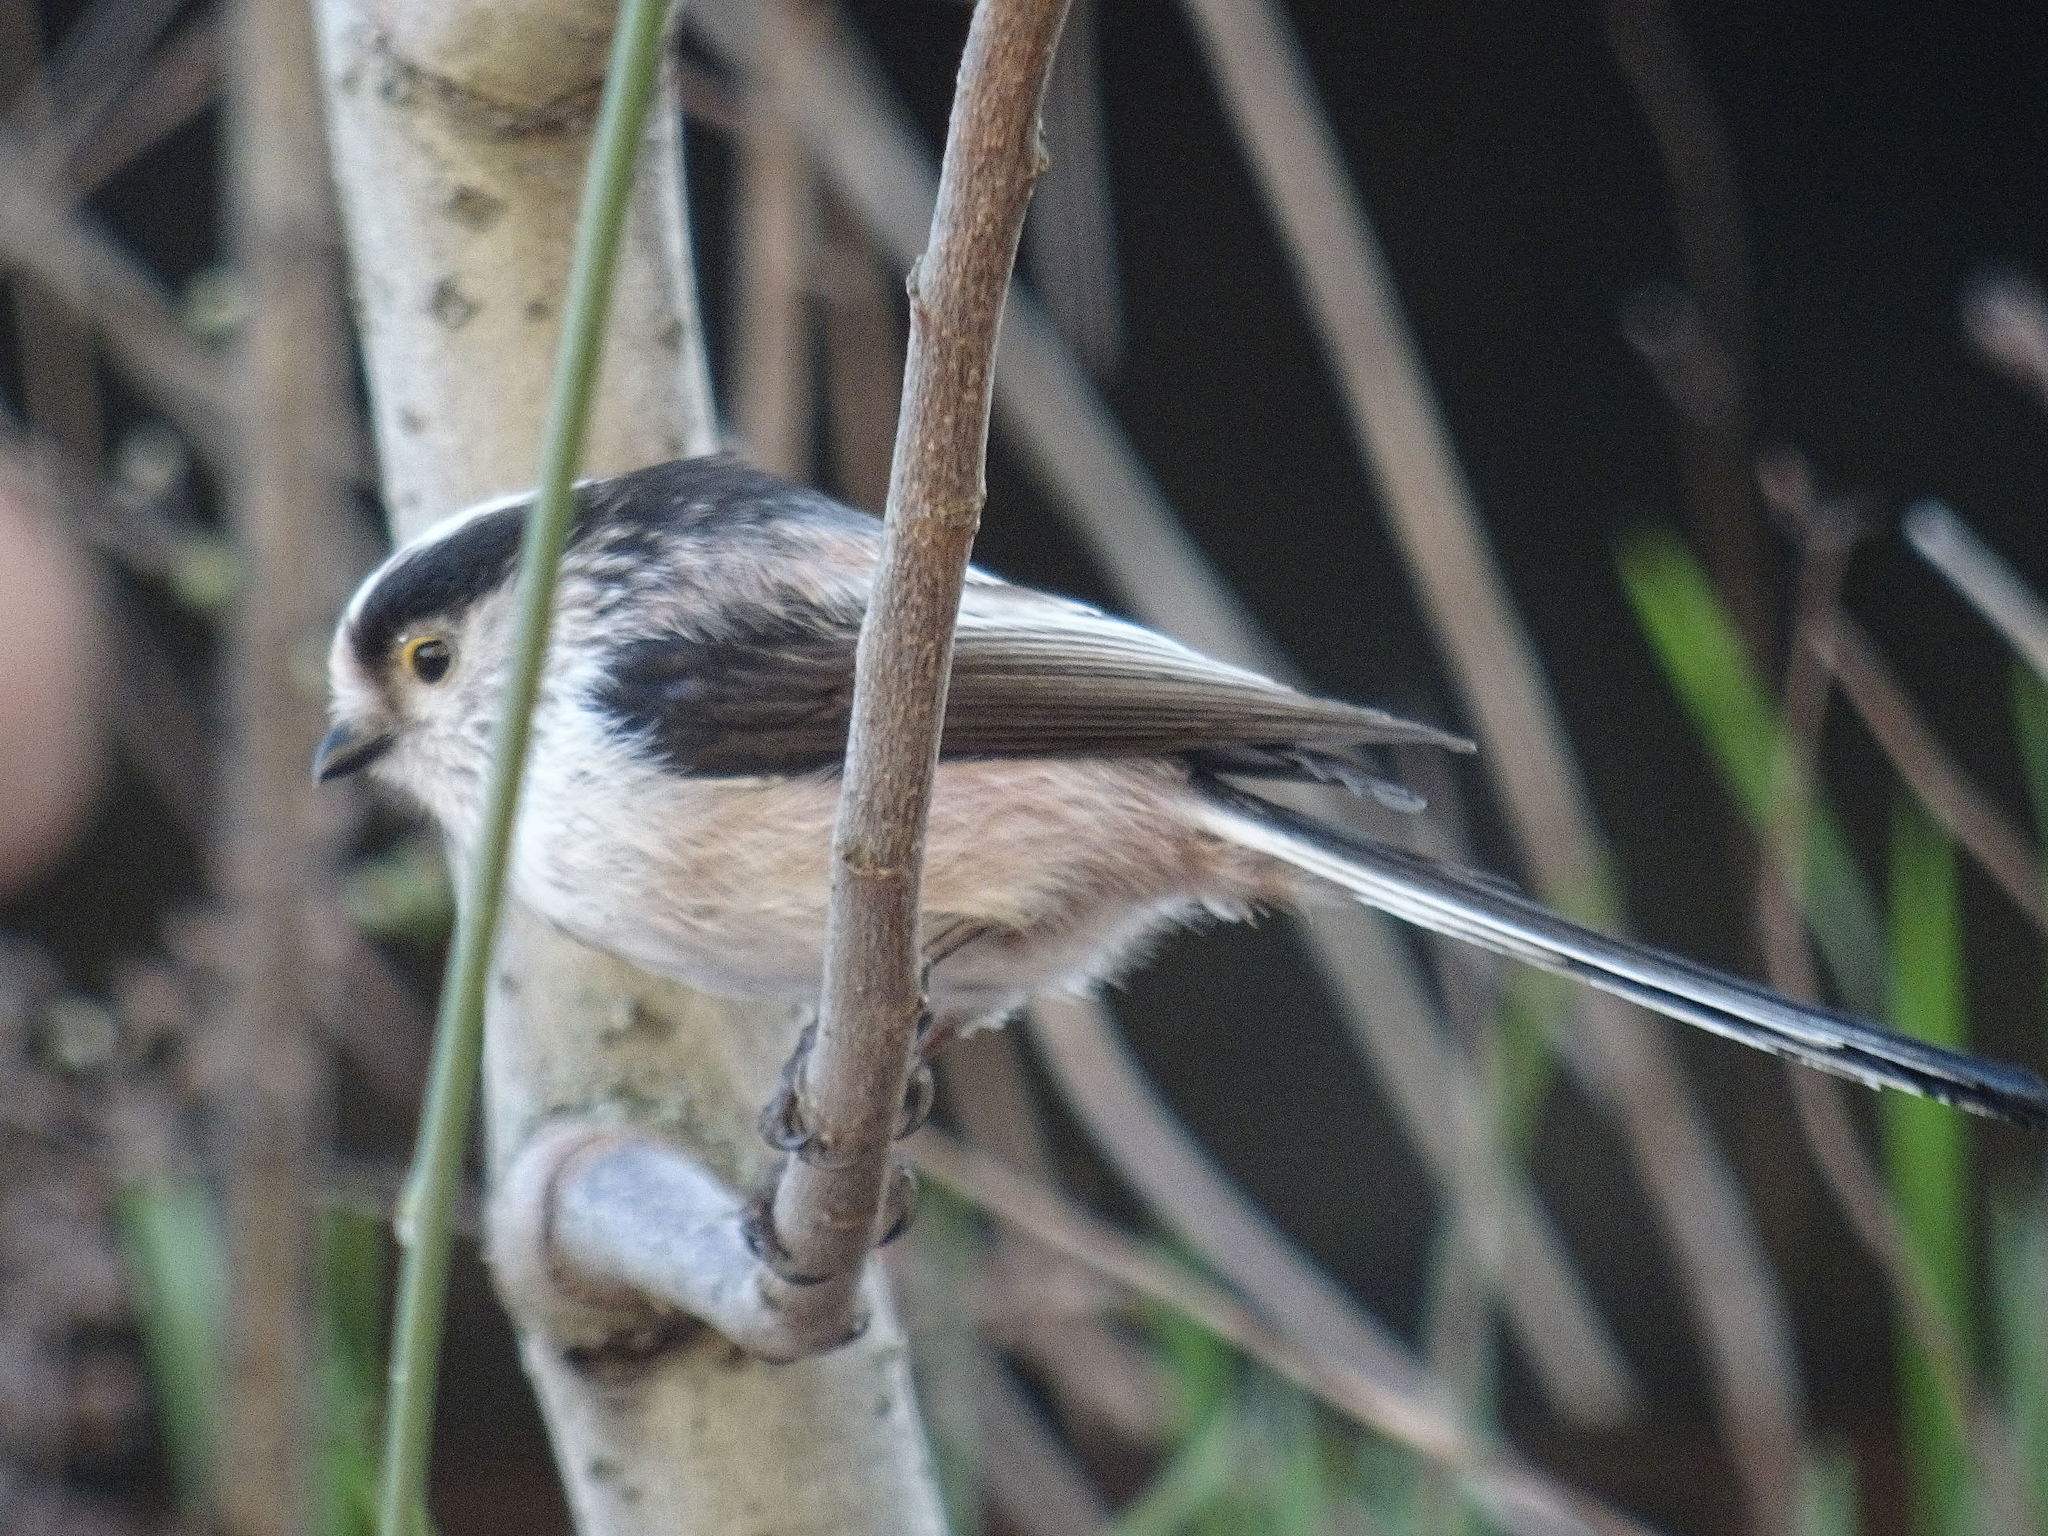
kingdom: Animalia
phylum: Chordata
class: Aves
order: Passeriformes
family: Aegithalidae
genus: Aegithalos
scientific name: Aegithalos caudatus
